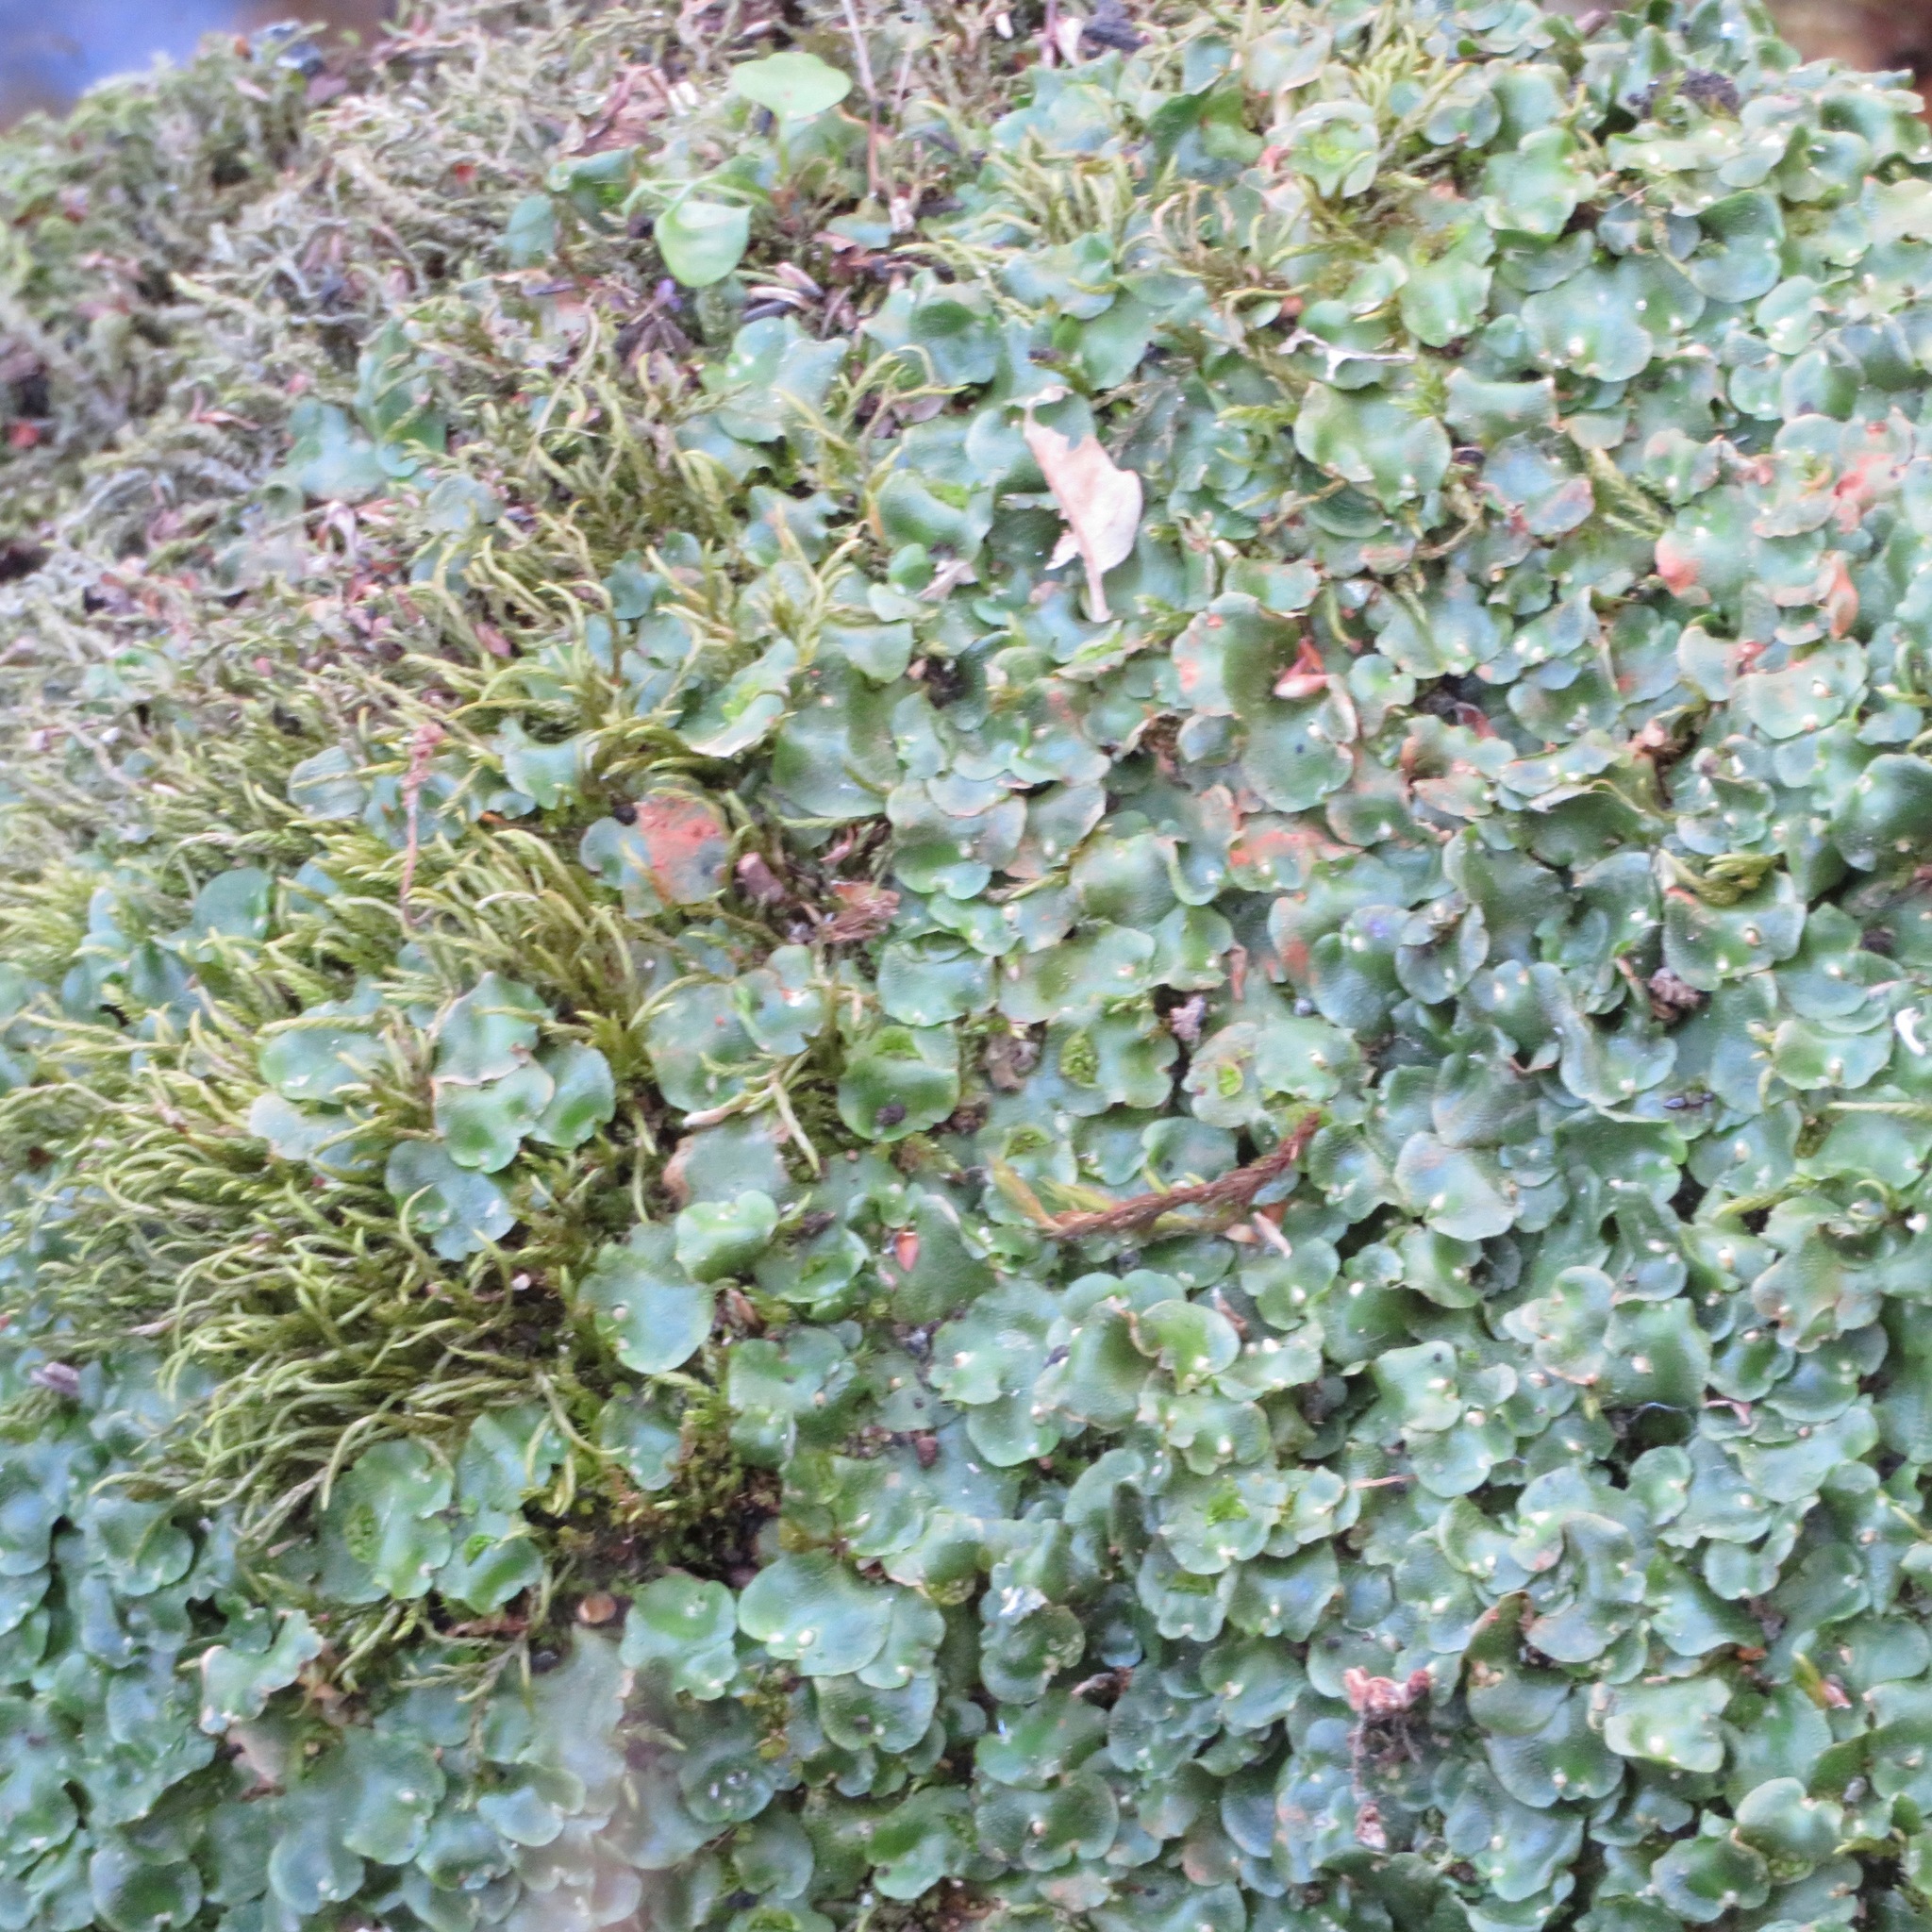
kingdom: Plantae
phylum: Marchantiophyta
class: Marchantiopsida
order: Lunulariales
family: Lunulariaceae
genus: Lunularia
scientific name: Lunularia cruciata
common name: Crescent-cup liverwort
